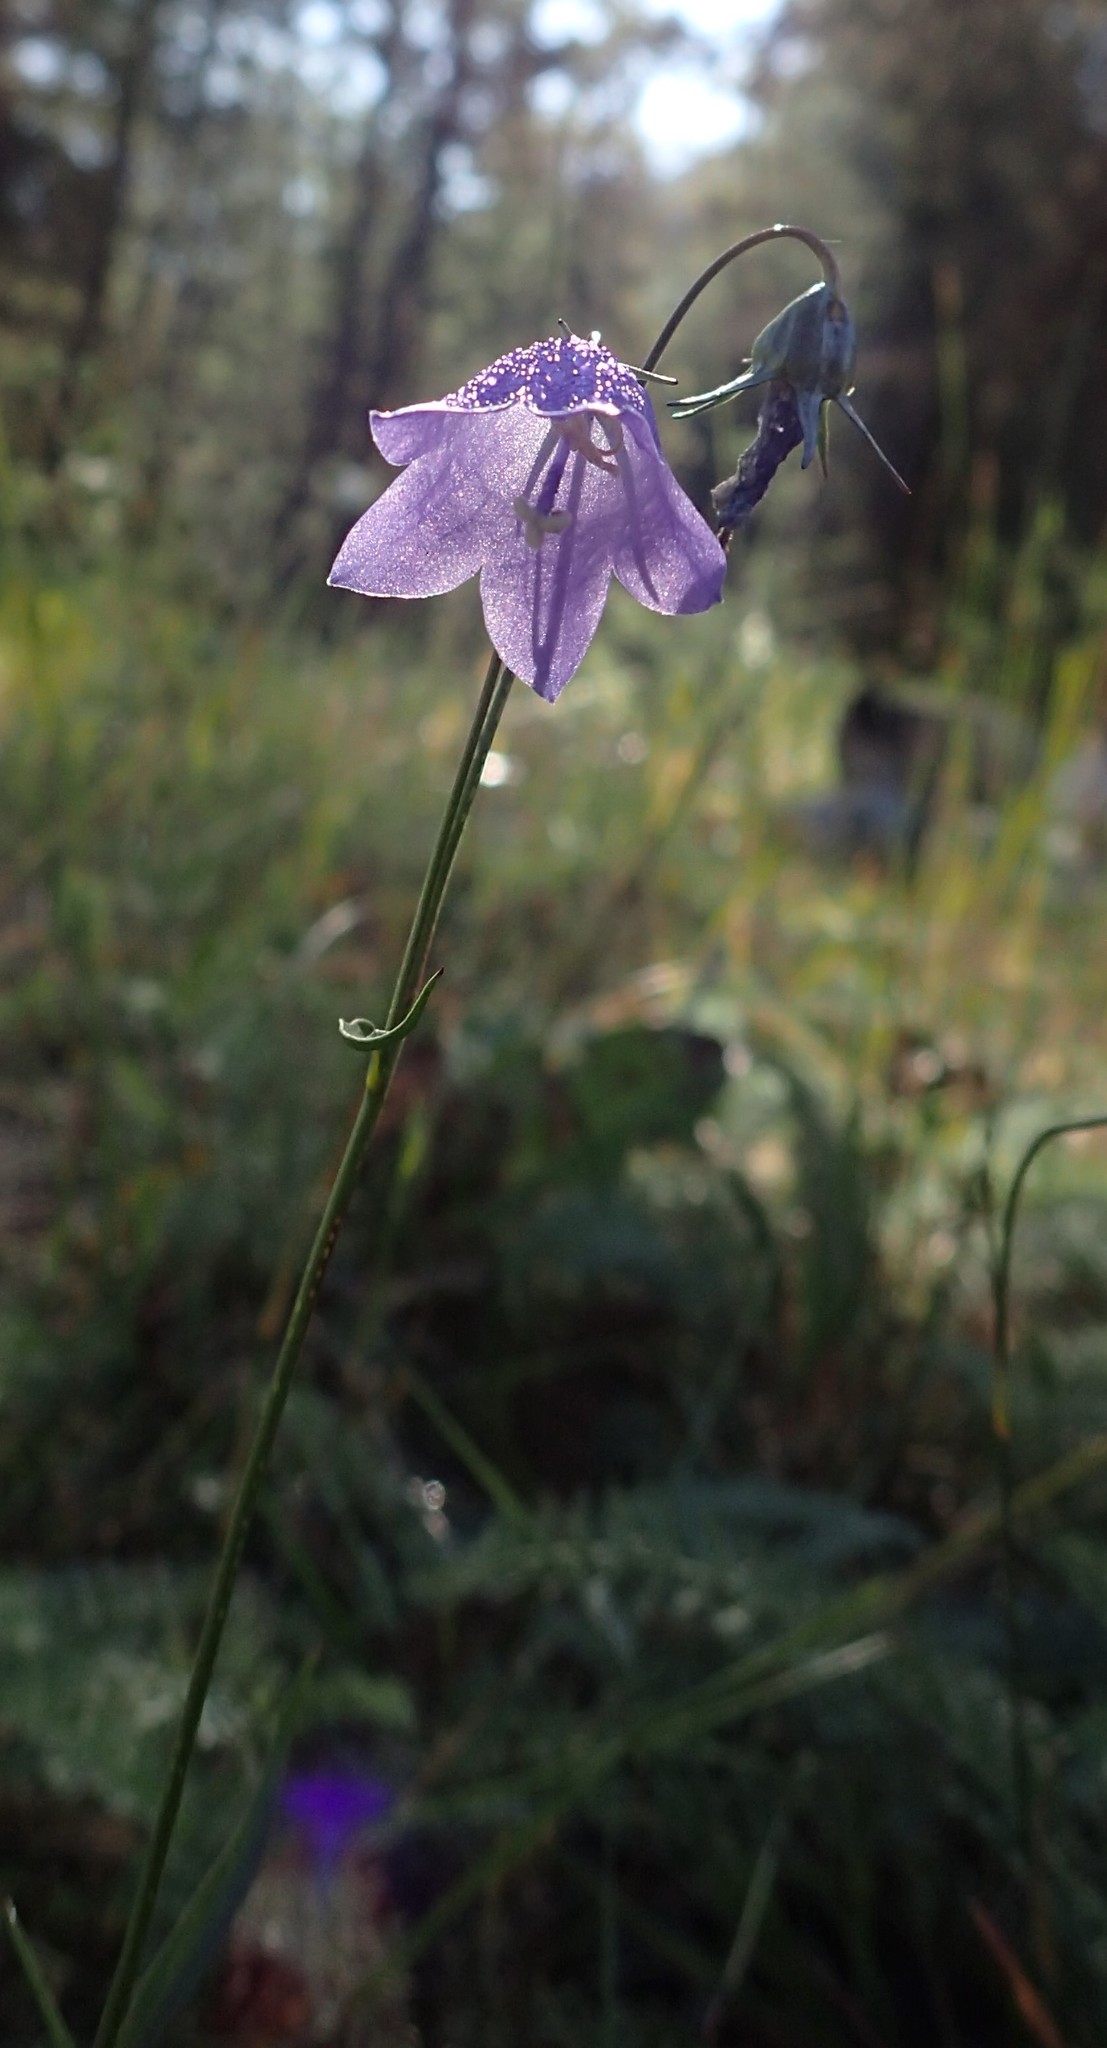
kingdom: Plantae
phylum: Tracheophyta
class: Magnoliopsida
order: Asterales
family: Campanulaceae
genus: Campanula
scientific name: Campanula alaskana
